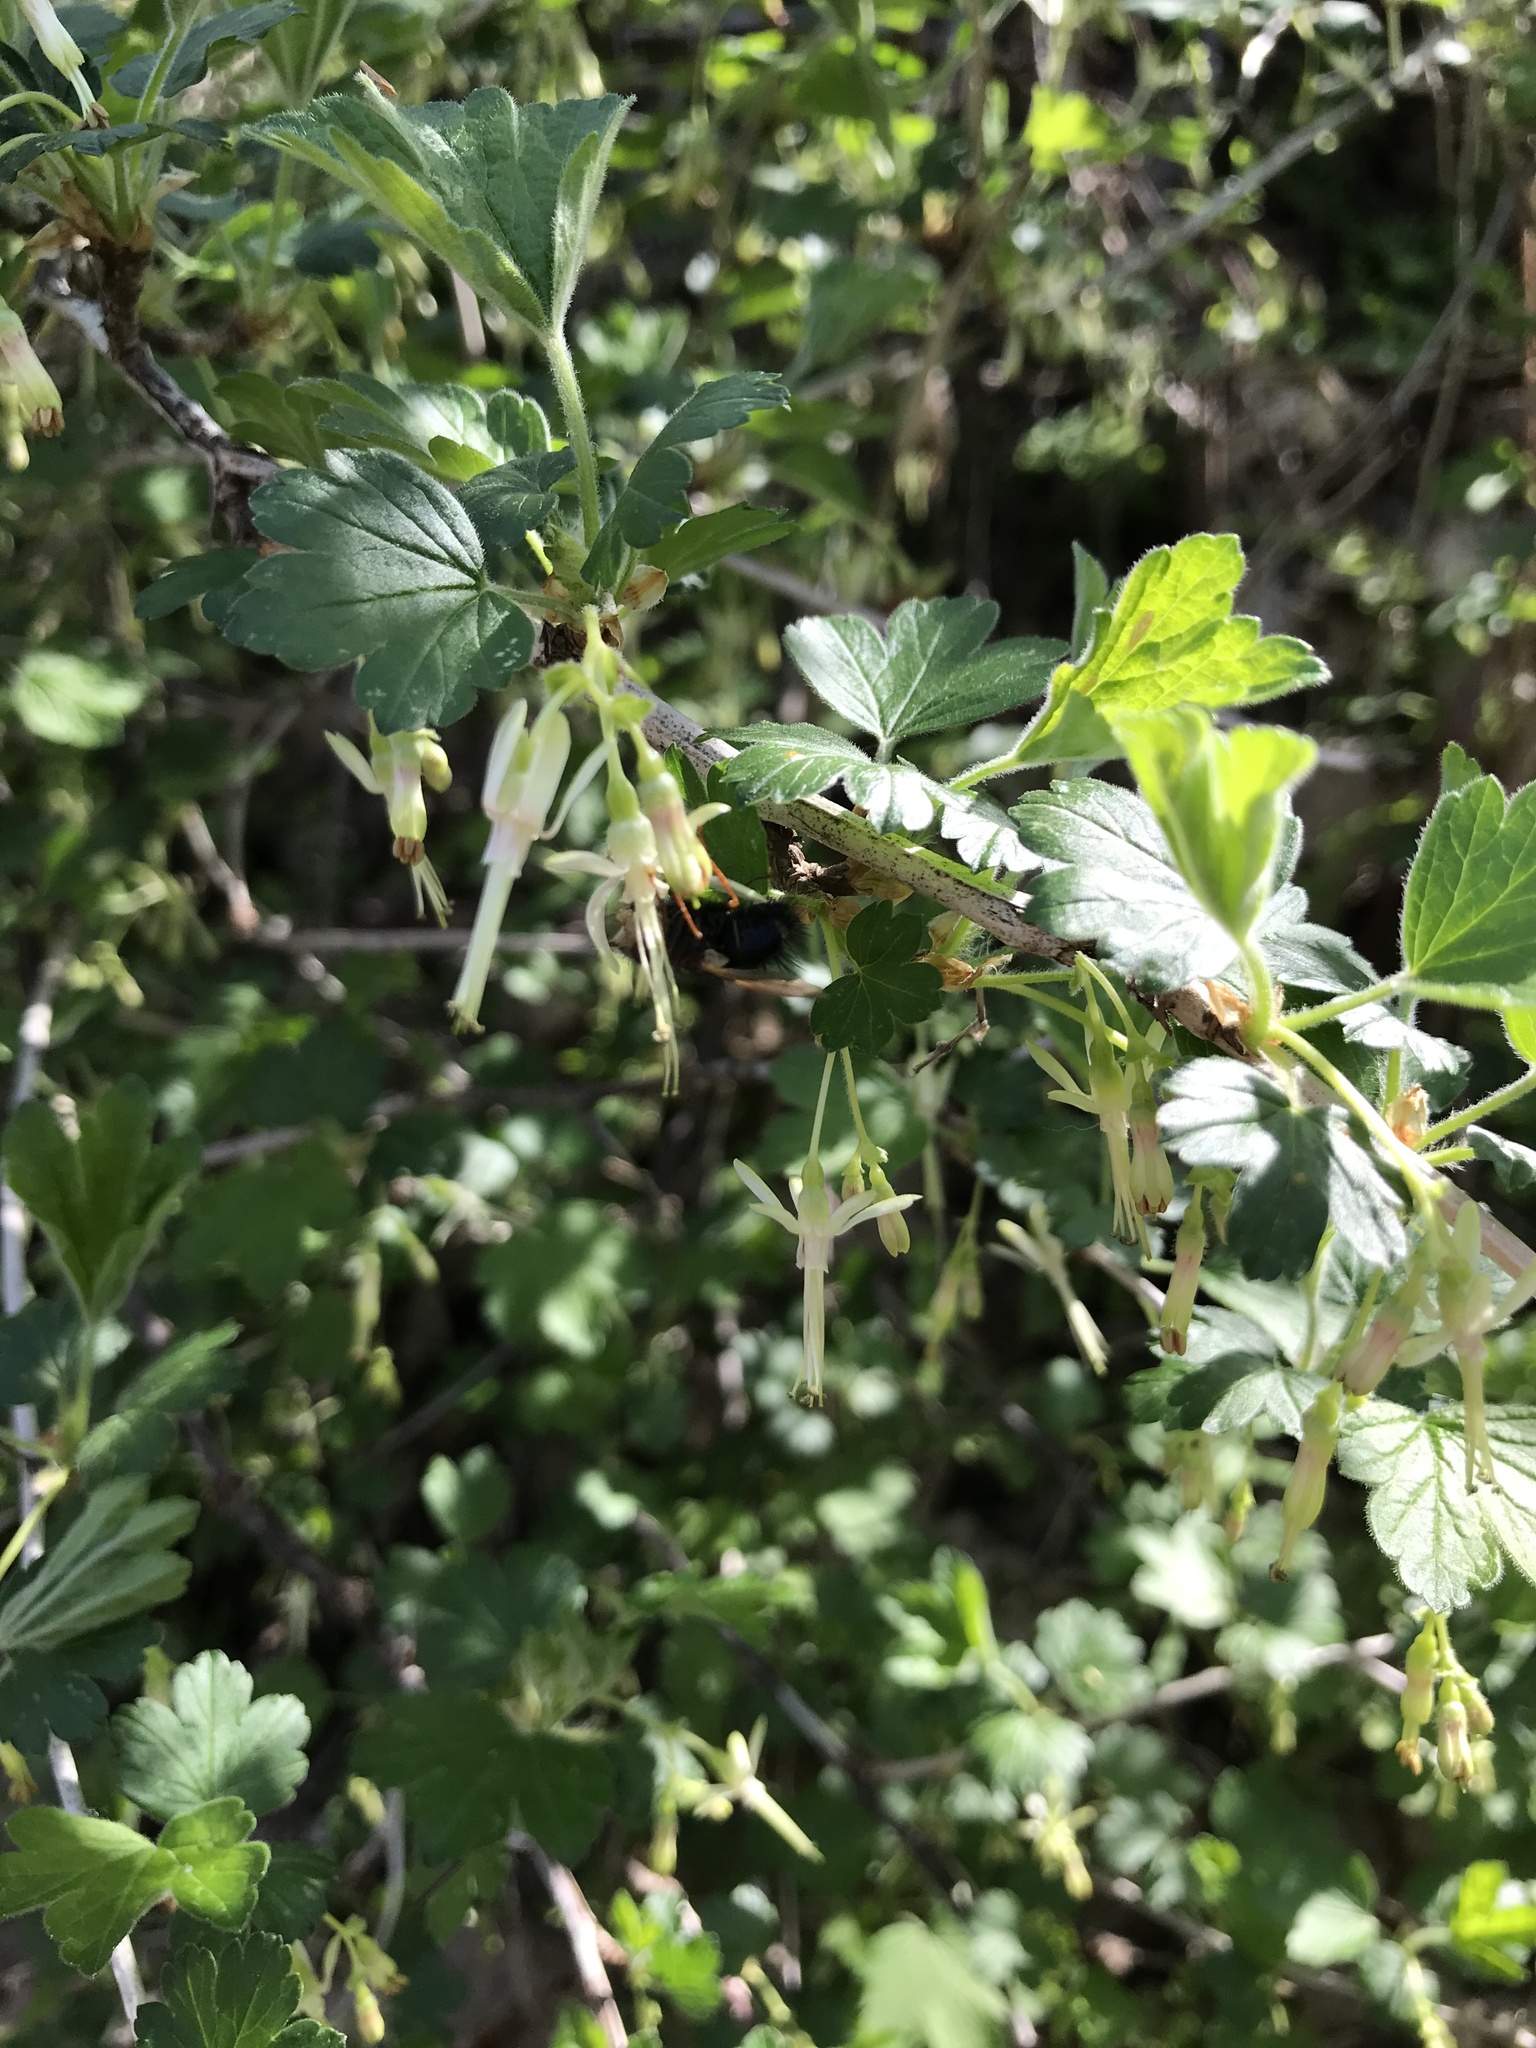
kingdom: Plantae
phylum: Tracheophyta
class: Magnoliopsida
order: Saxifragales
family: Grossulariaceae
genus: Ribes
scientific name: Ribes missouriense
